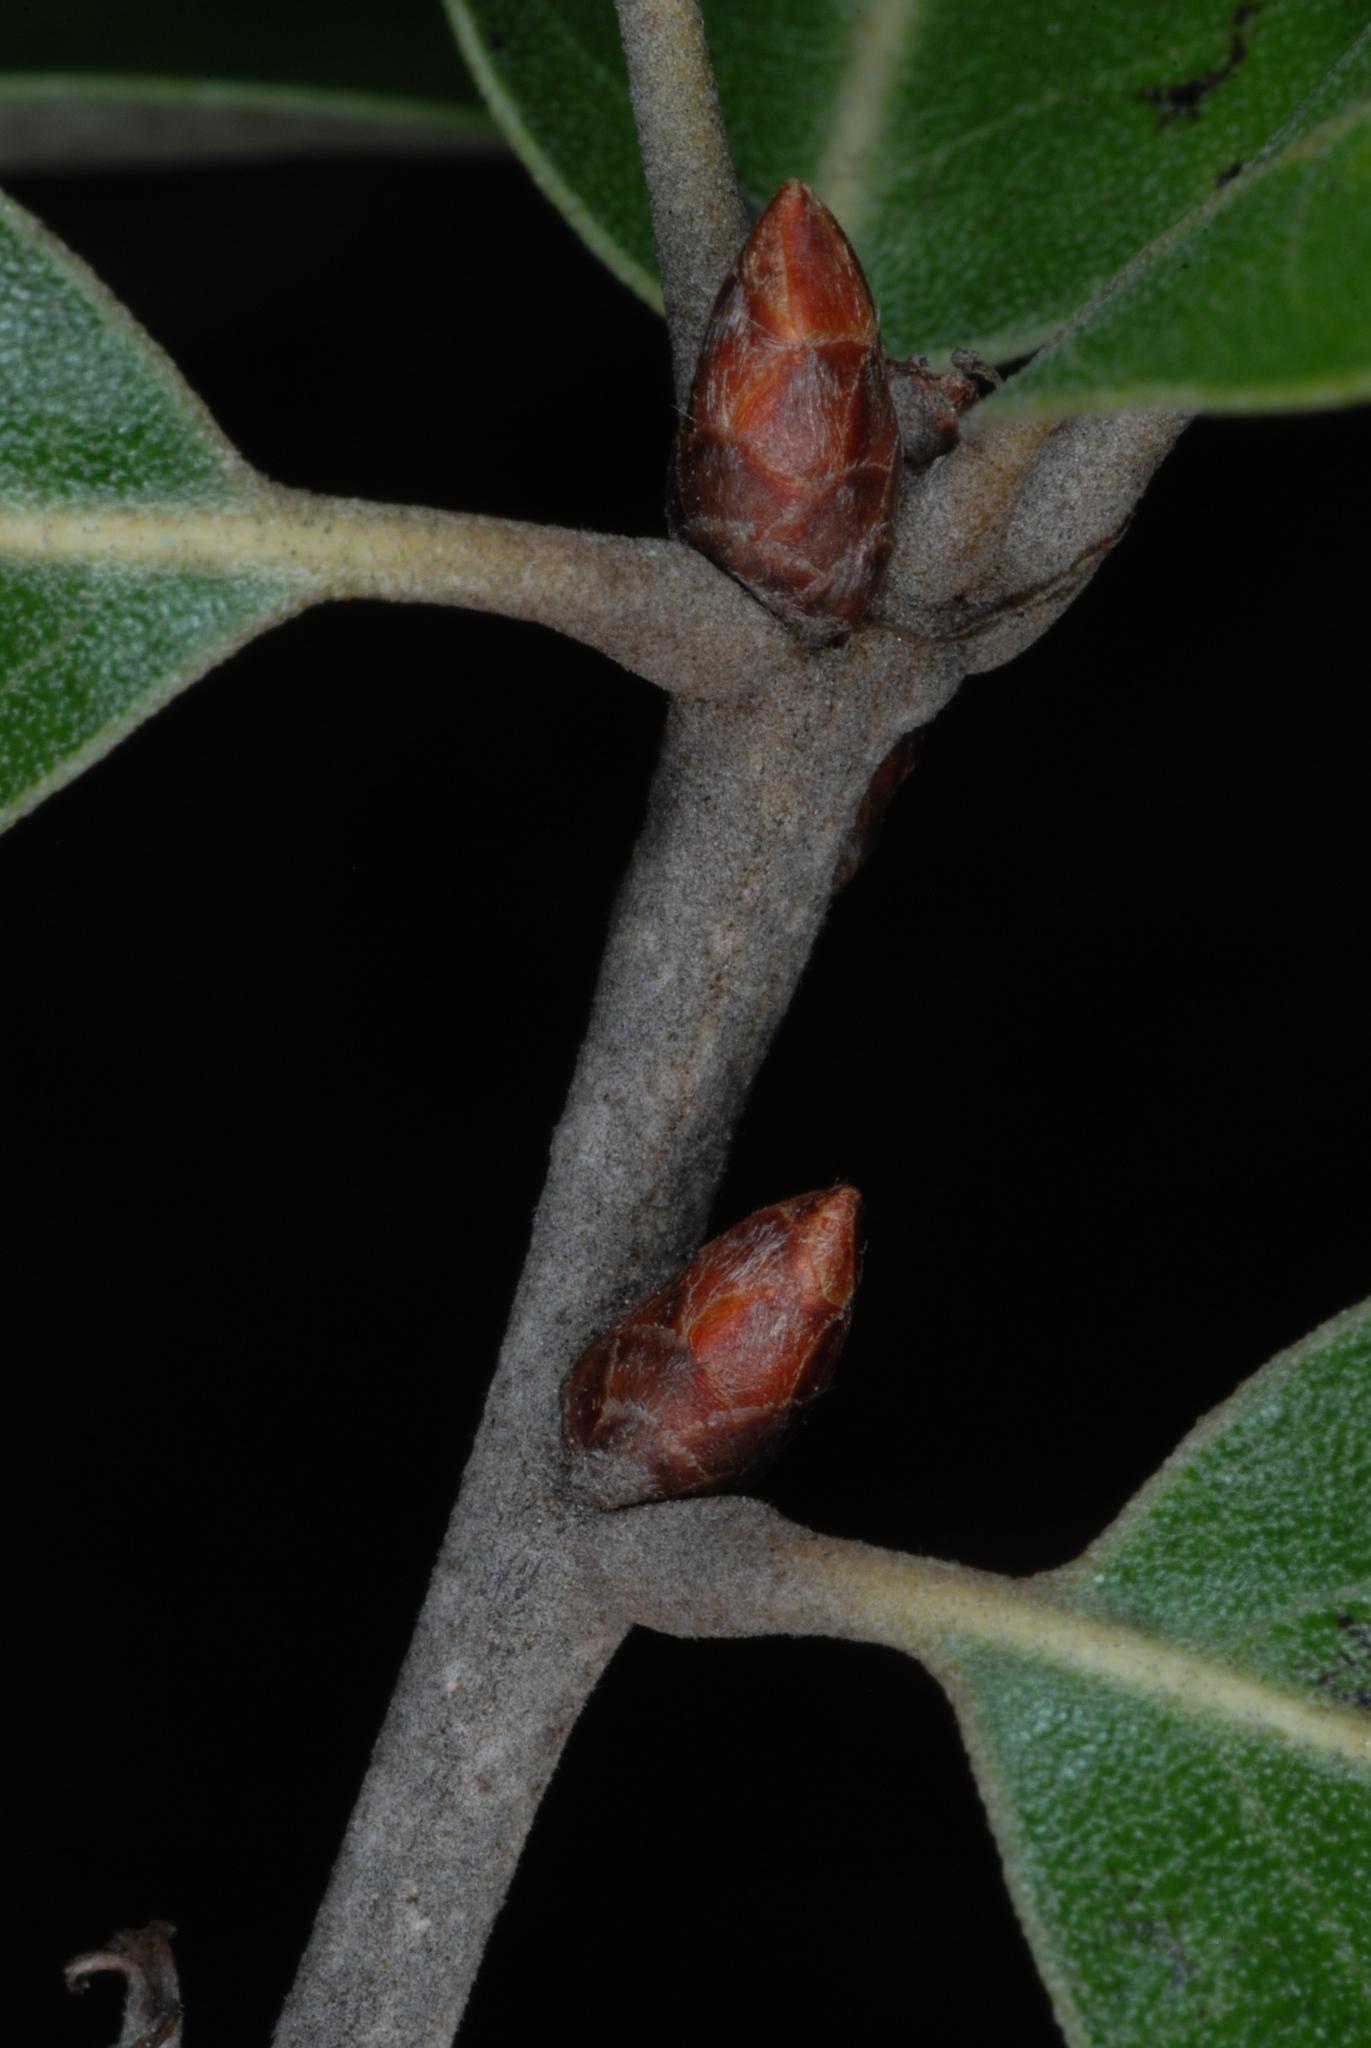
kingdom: Plantae
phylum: Tracheophyta
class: Magnoliopsida
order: Fagales
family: Fagaceae
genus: Quercus
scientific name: Quercus incana
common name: Bluejack oak
